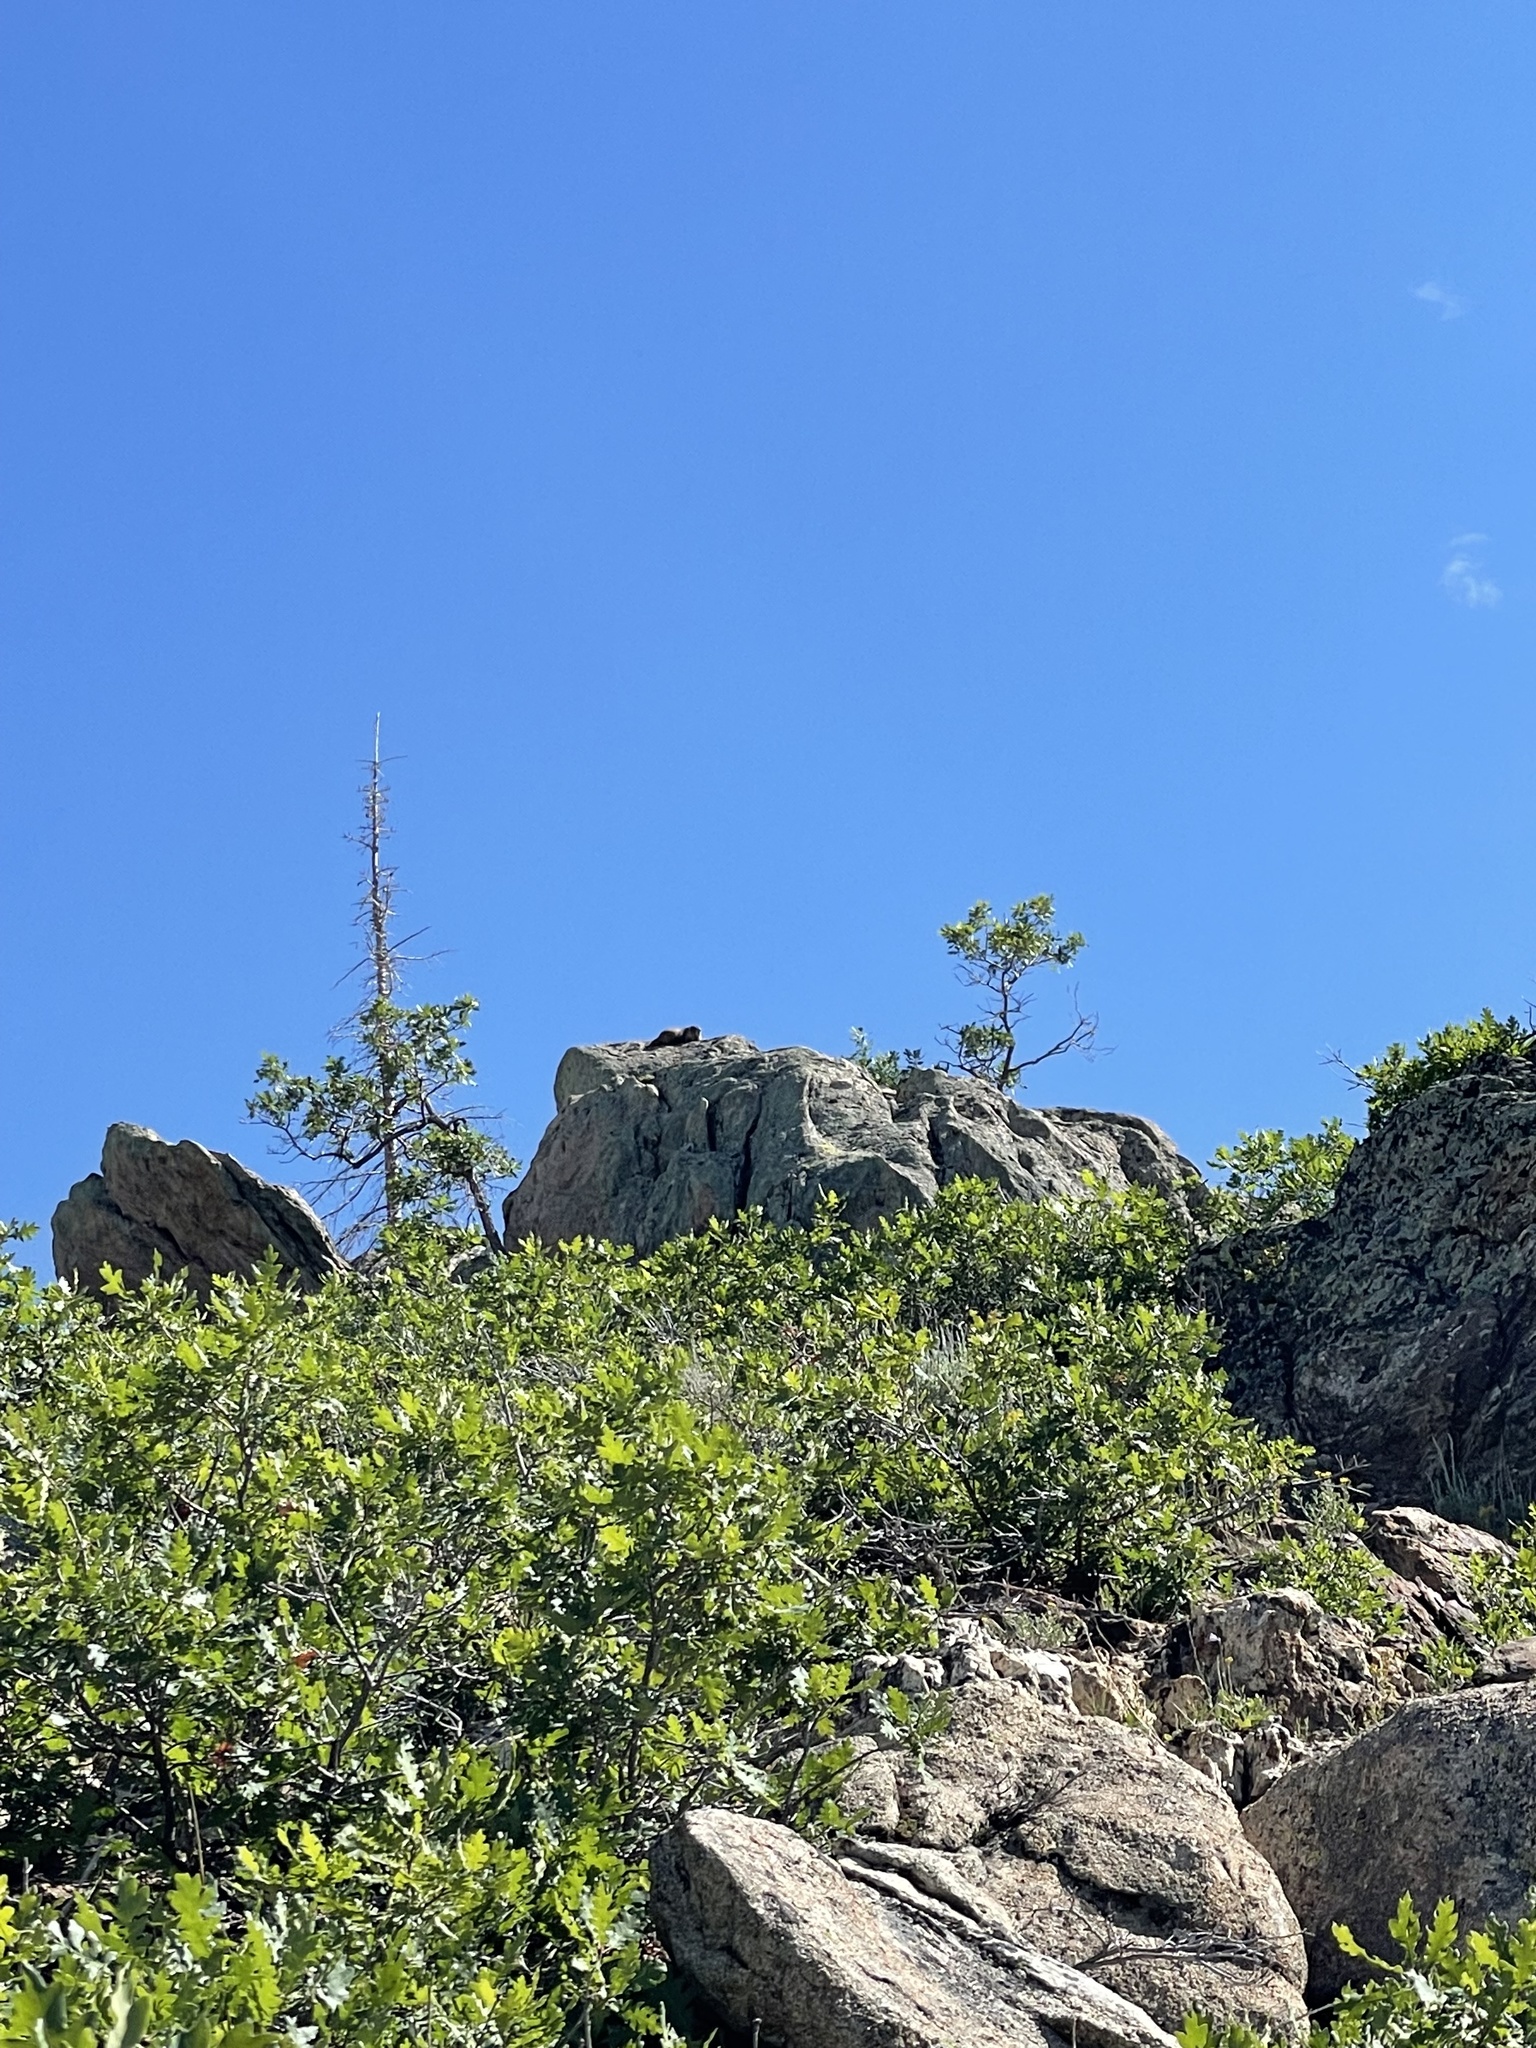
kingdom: Animalia
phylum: Chordata
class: Mammalia
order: Rodentia
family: Sciuridae
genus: Marmota
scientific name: Marmota flaviventris
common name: Yellow-bellied marmot
